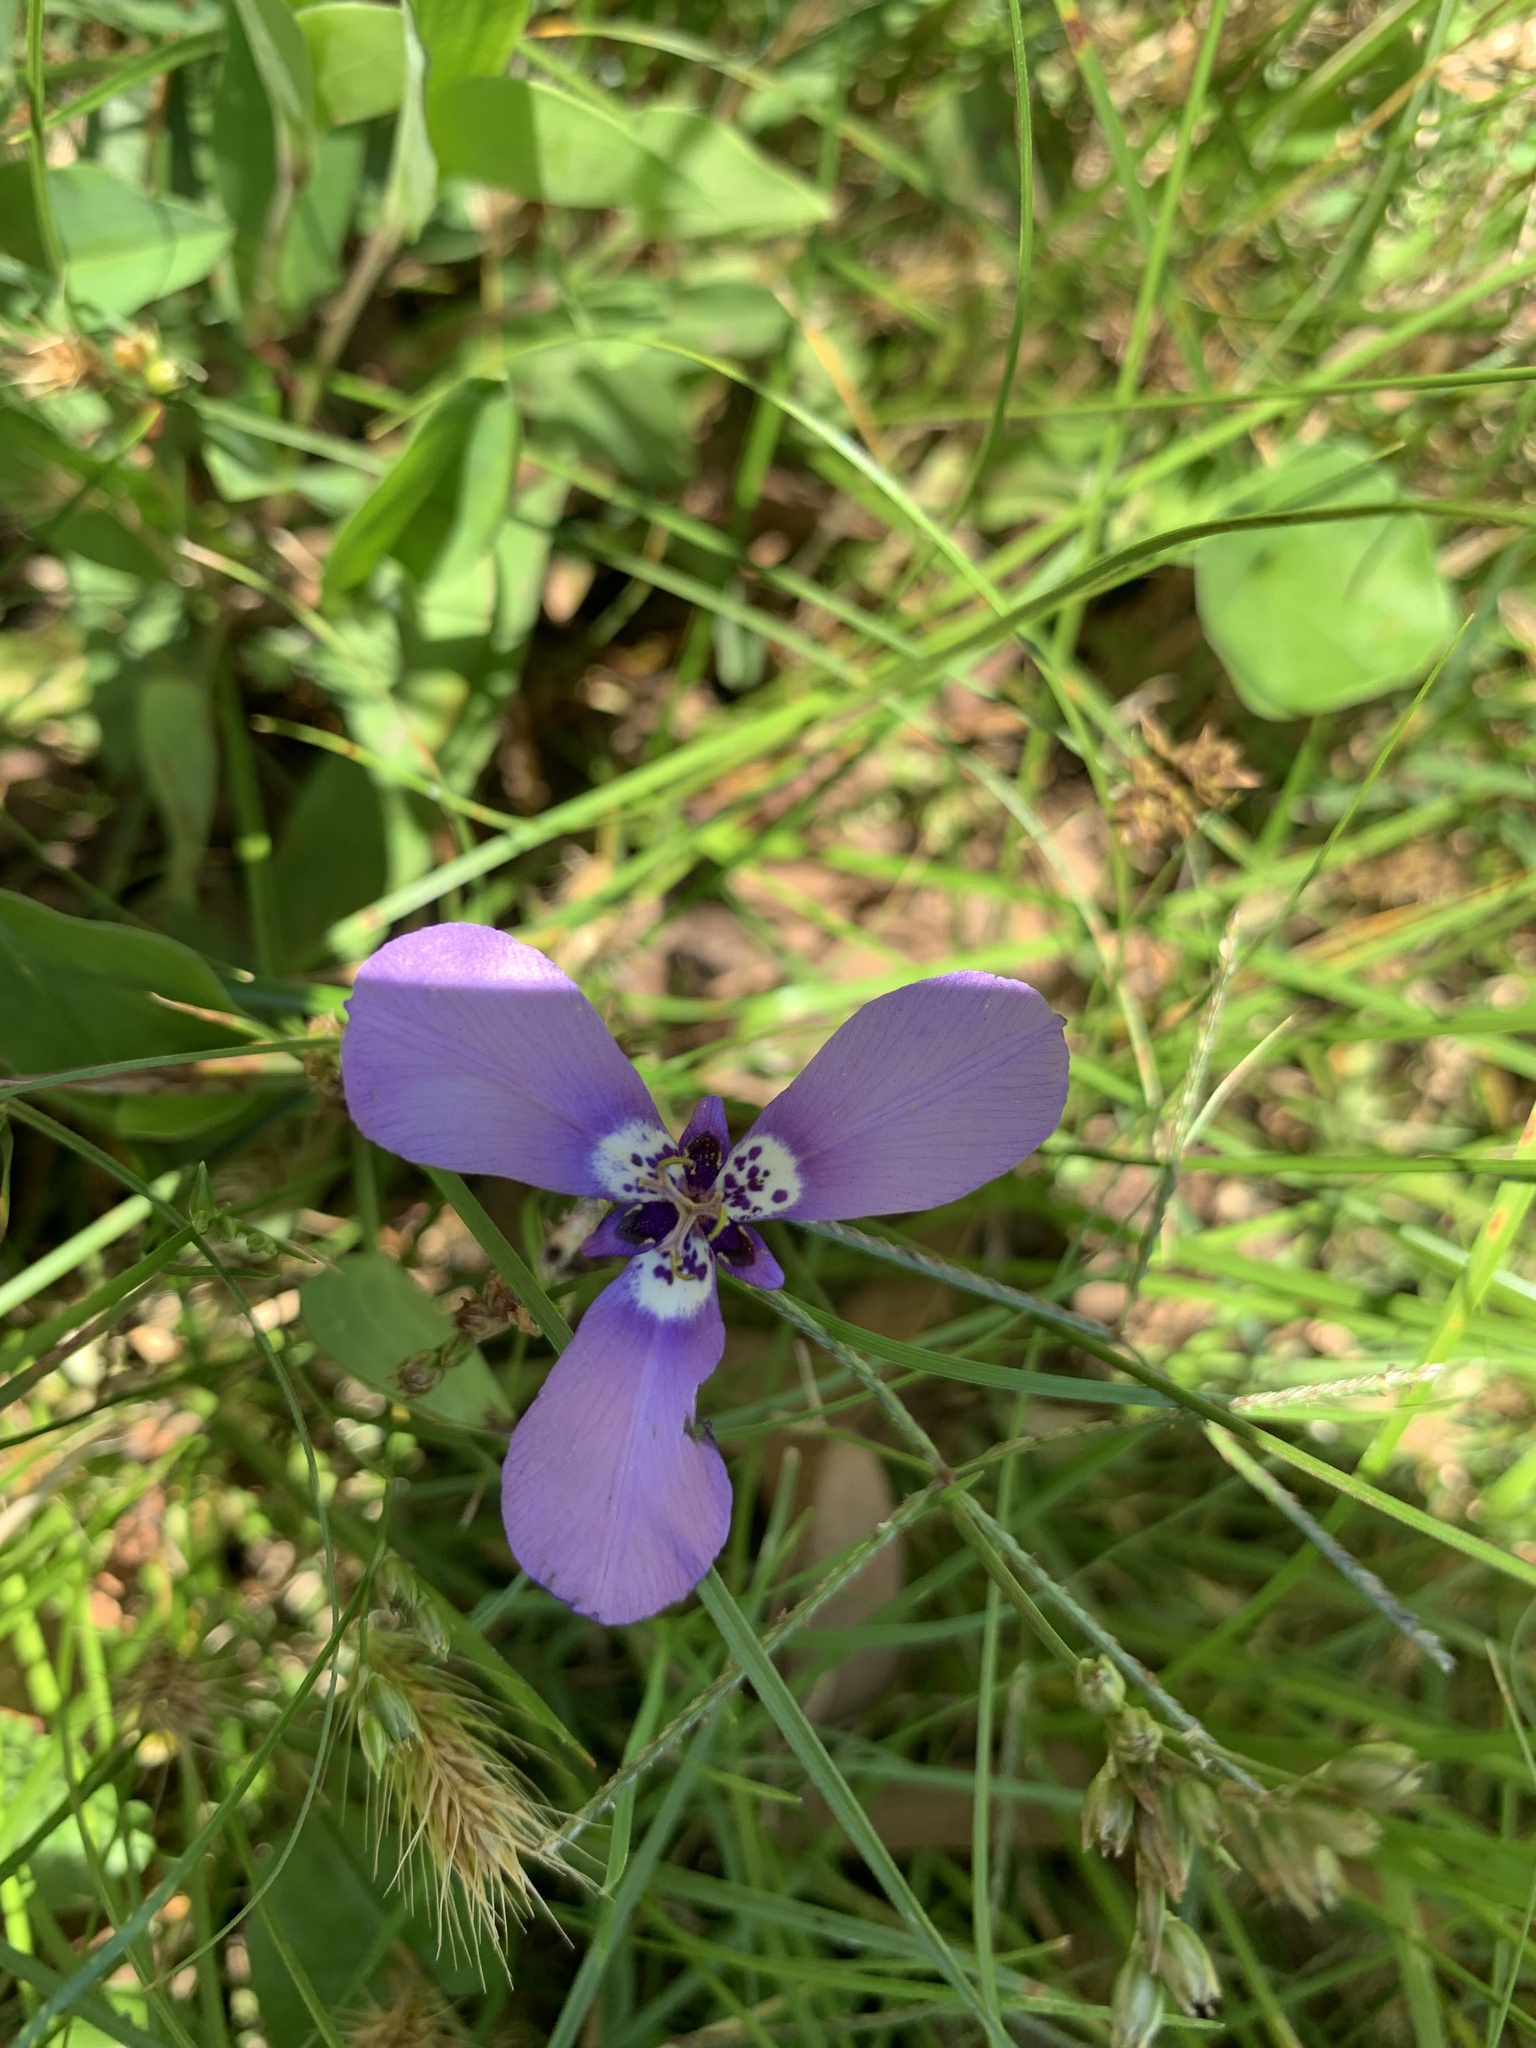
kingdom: Plantae
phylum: Tracheophyta
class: Liliopsida
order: Asparagales
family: Iridaceae
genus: Herbertia
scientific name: Herbertia lahue
